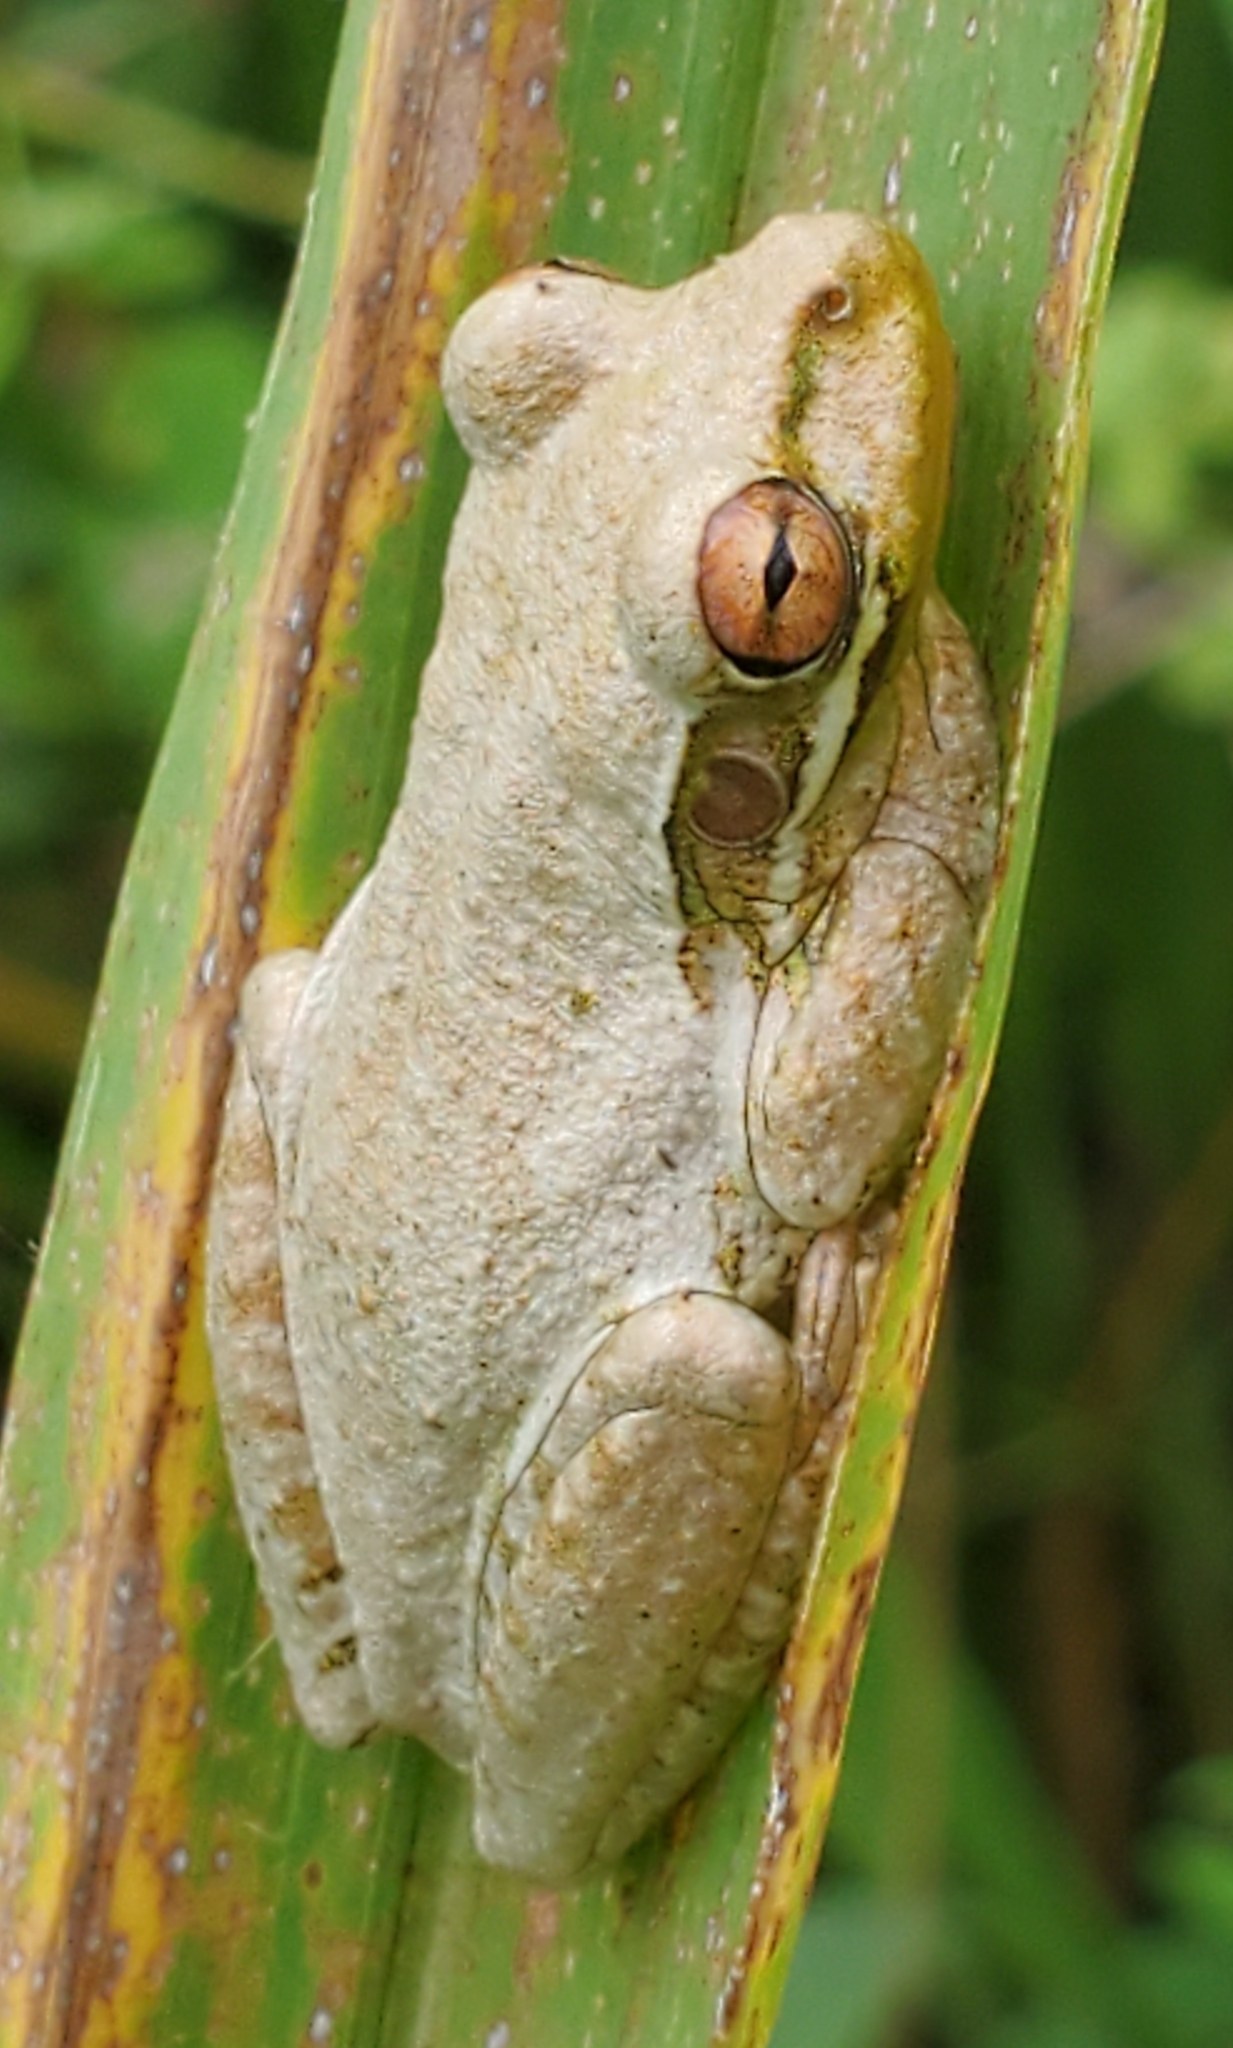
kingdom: Animalia
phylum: Chordata
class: Amphibia
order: Anura
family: Hylidae
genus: Osteopilus
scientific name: Osteopilus septentrionalis
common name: Cuban treefrog
